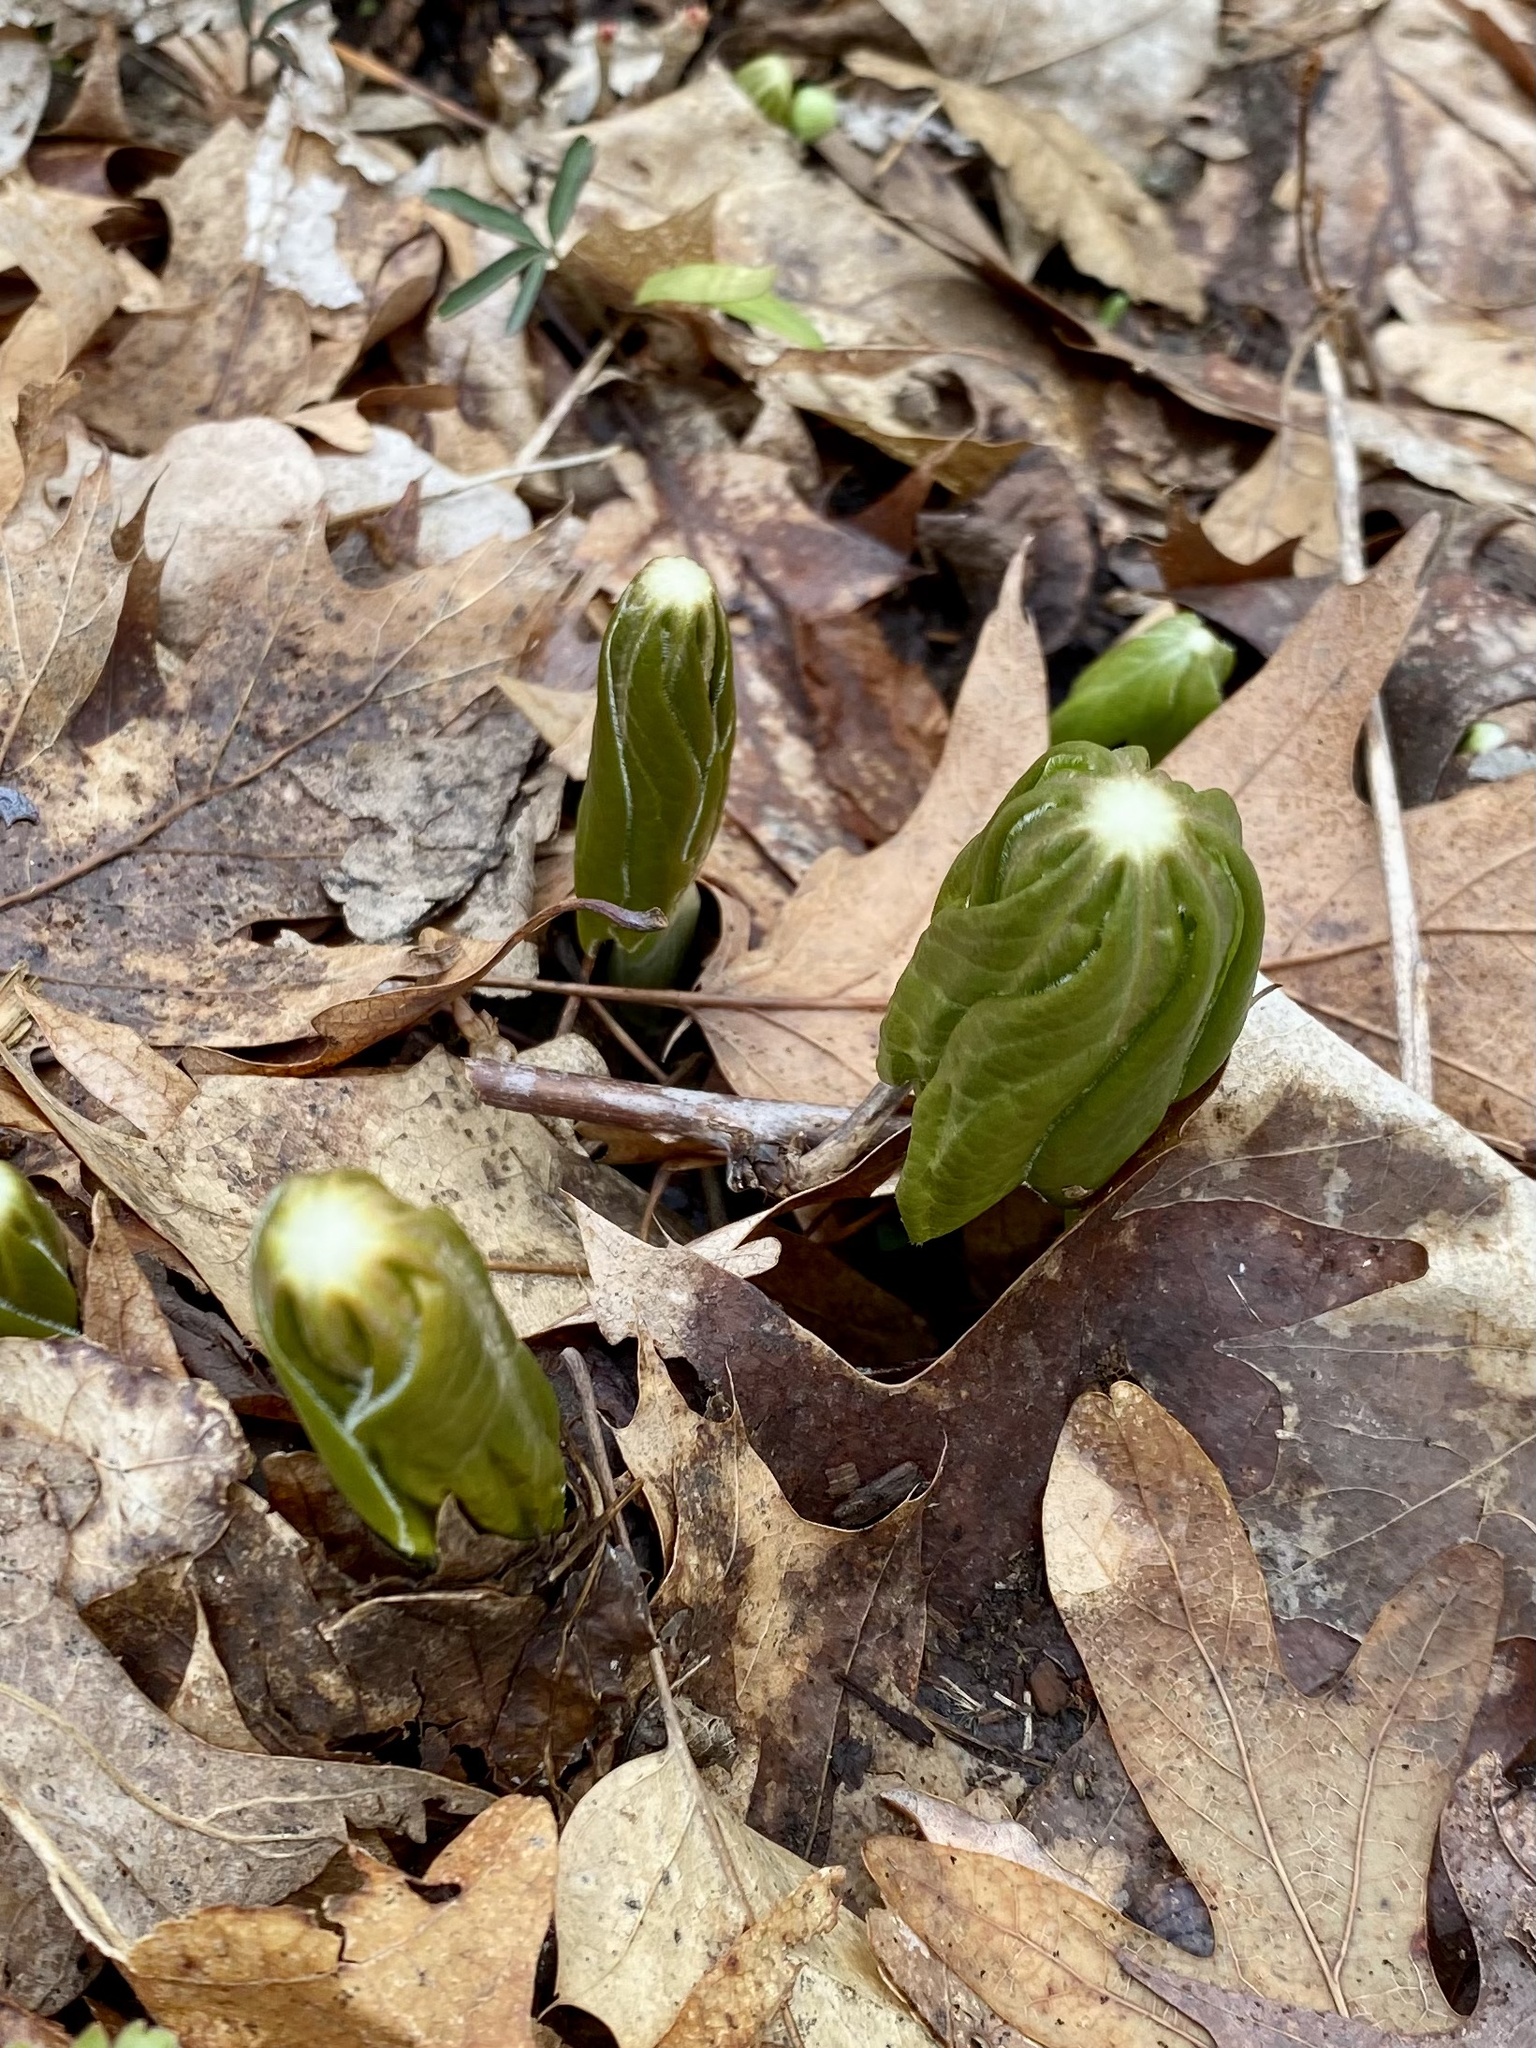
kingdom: Plantae
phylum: Tracheophyta
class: Magnoliopsida
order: Ranunculales
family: Berberidaceae
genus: Podophyllum
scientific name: Podophyllum peltatum
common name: Wild mandrake
